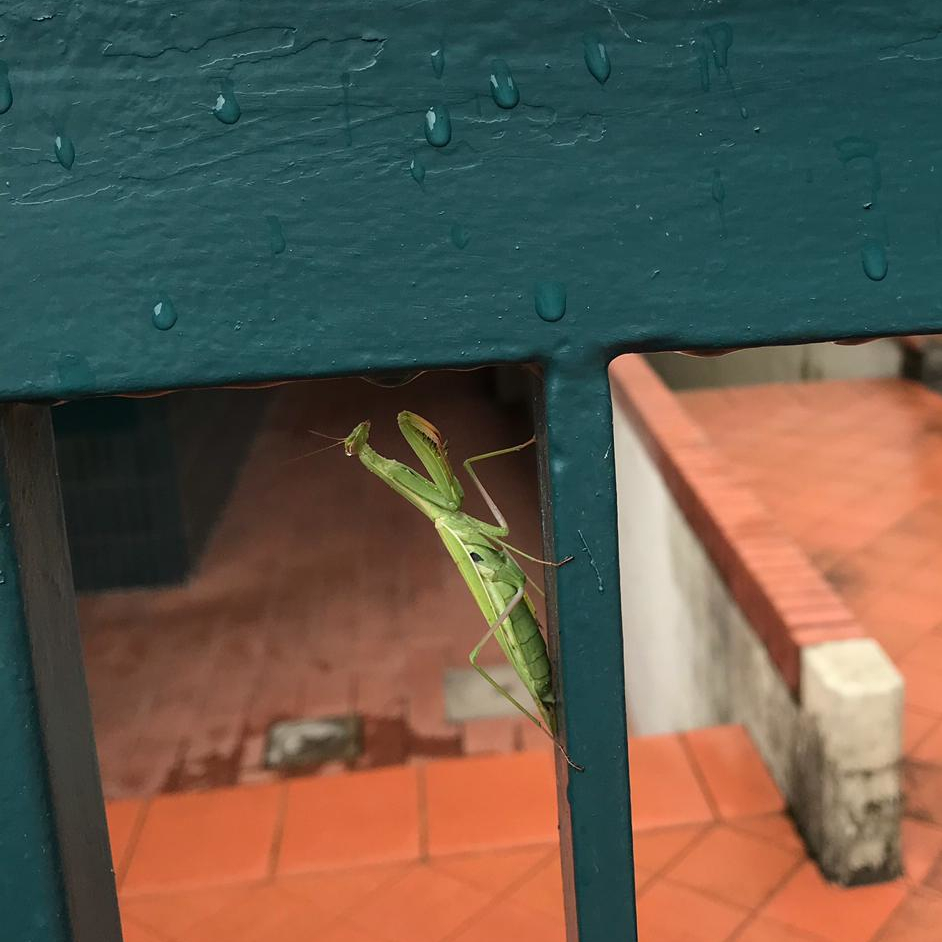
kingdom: Animalia
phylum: Arthropoda
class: Insecta
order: Mantodea
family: Mantidae
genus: Mantis
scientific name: Mantis religiosa
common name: Praying mantis
